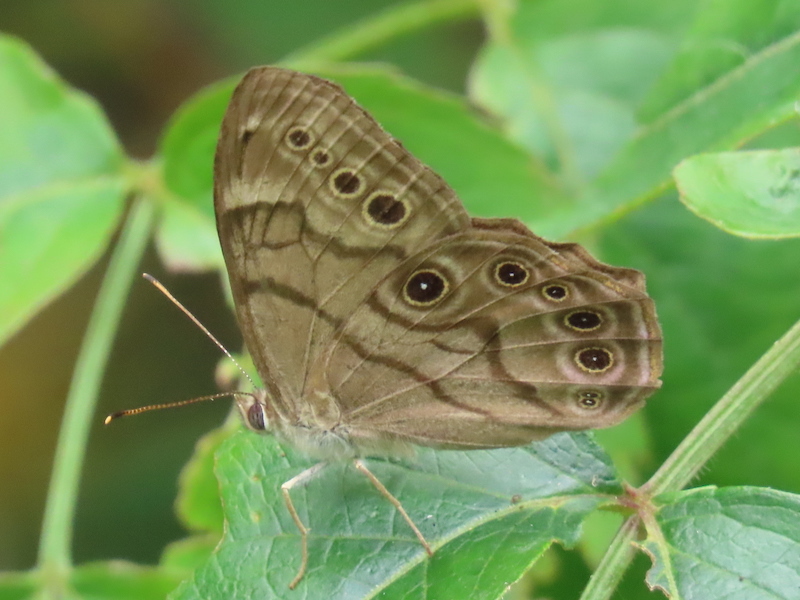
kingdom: Animalia
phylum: Arthropoda
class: Insecta
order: Lepidoptera
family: Nymphalidae
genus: Lethe
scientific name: Lethe anthedon
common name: Northern pearly-eye
